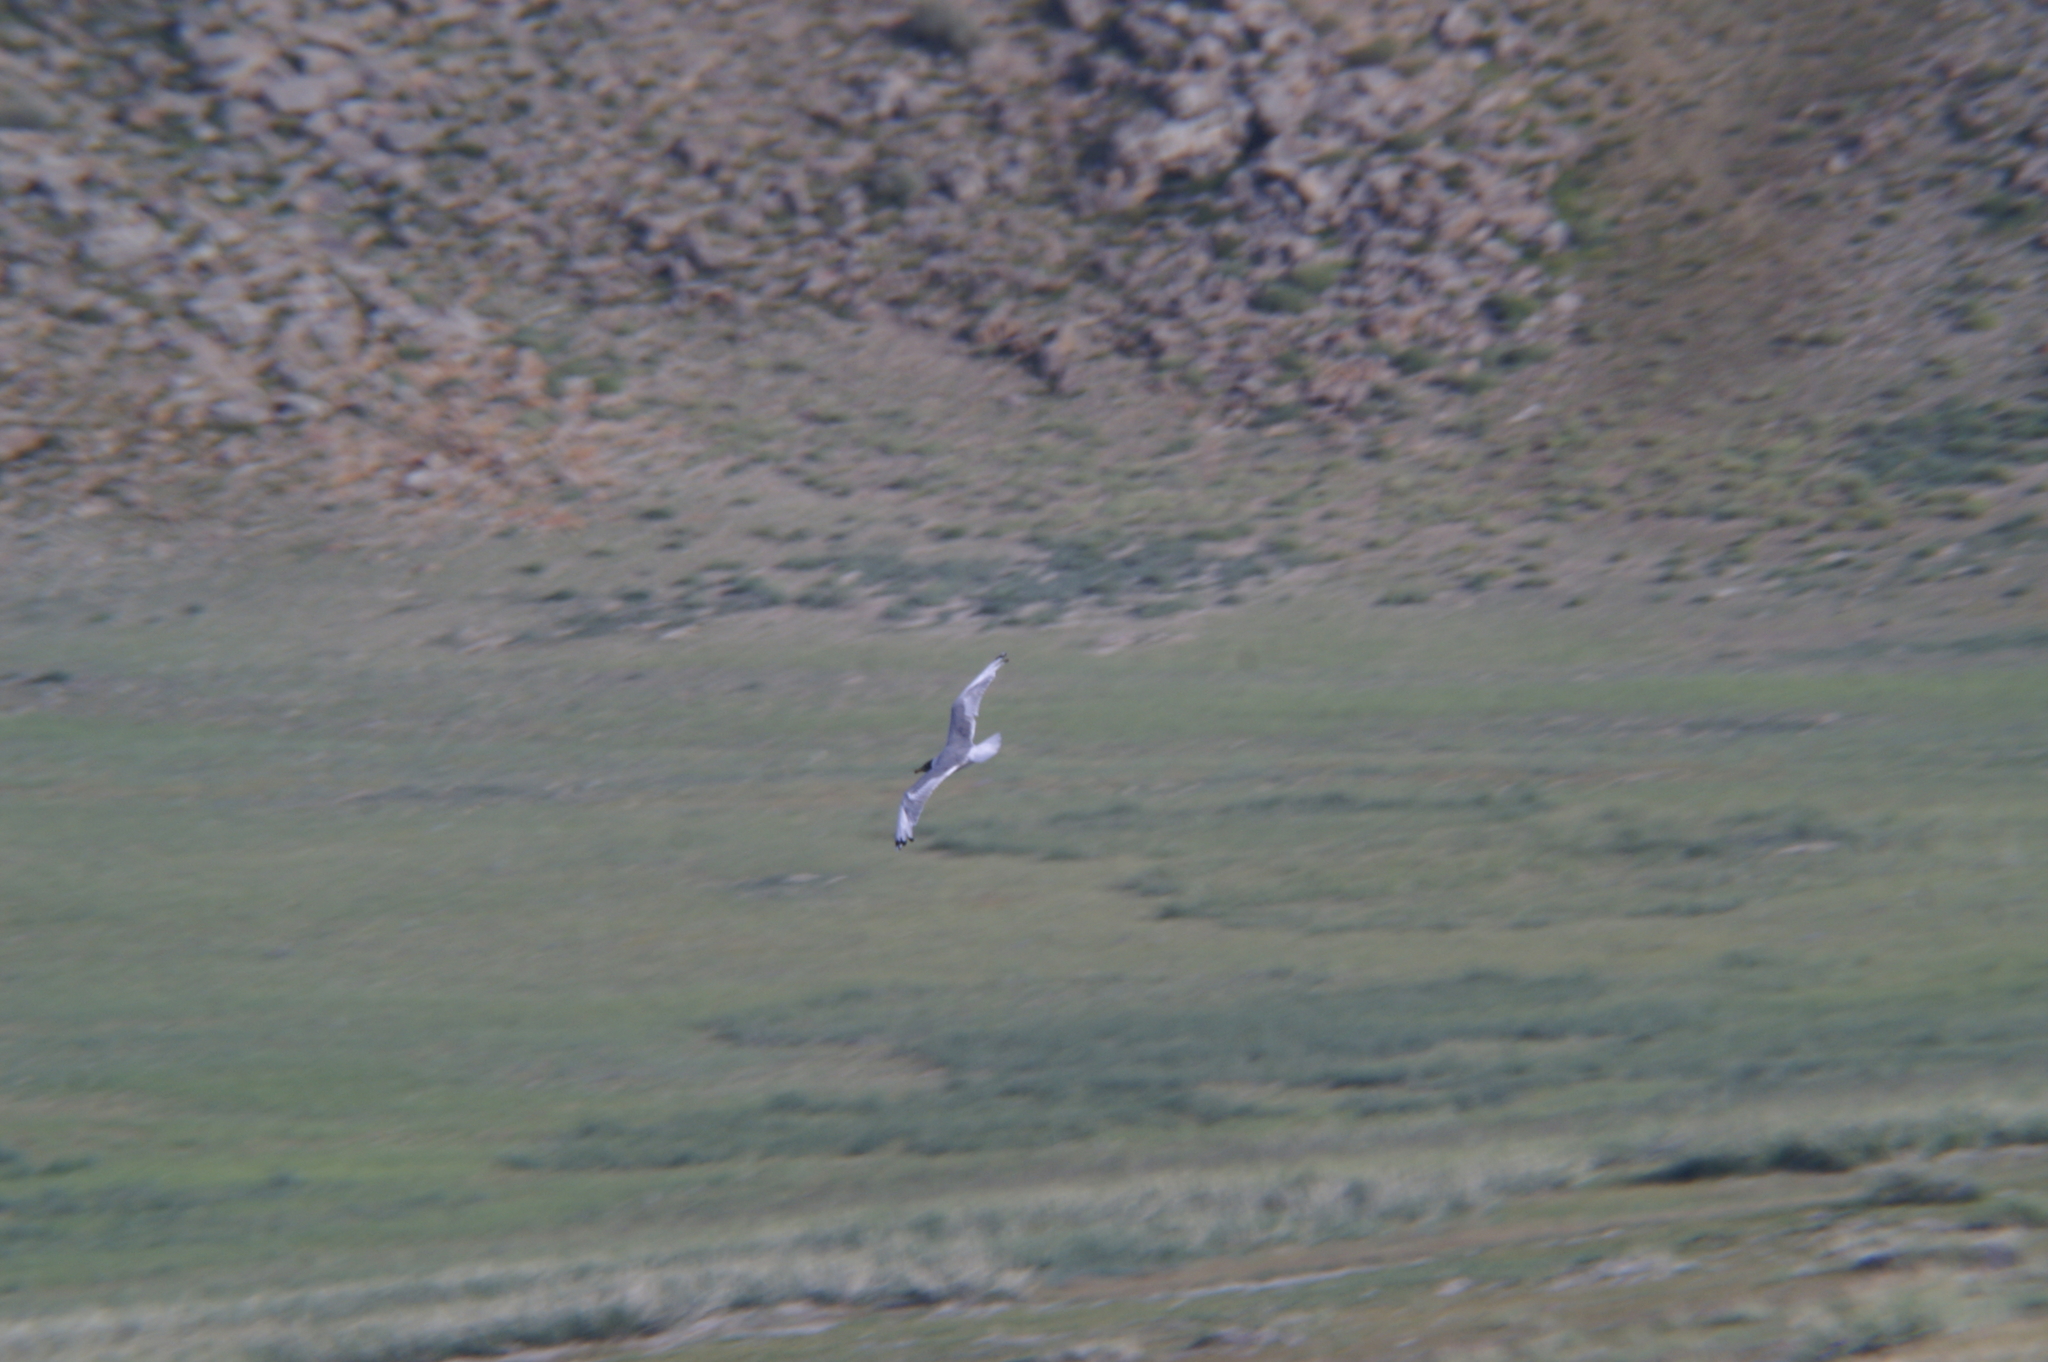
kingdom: Animalia
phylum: Chordata
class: Aves
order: Charadriiformes
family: Laridae
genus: Ichthyaetus
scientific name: Ichthyaetus ichthyaetus
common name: Pallas's gull
